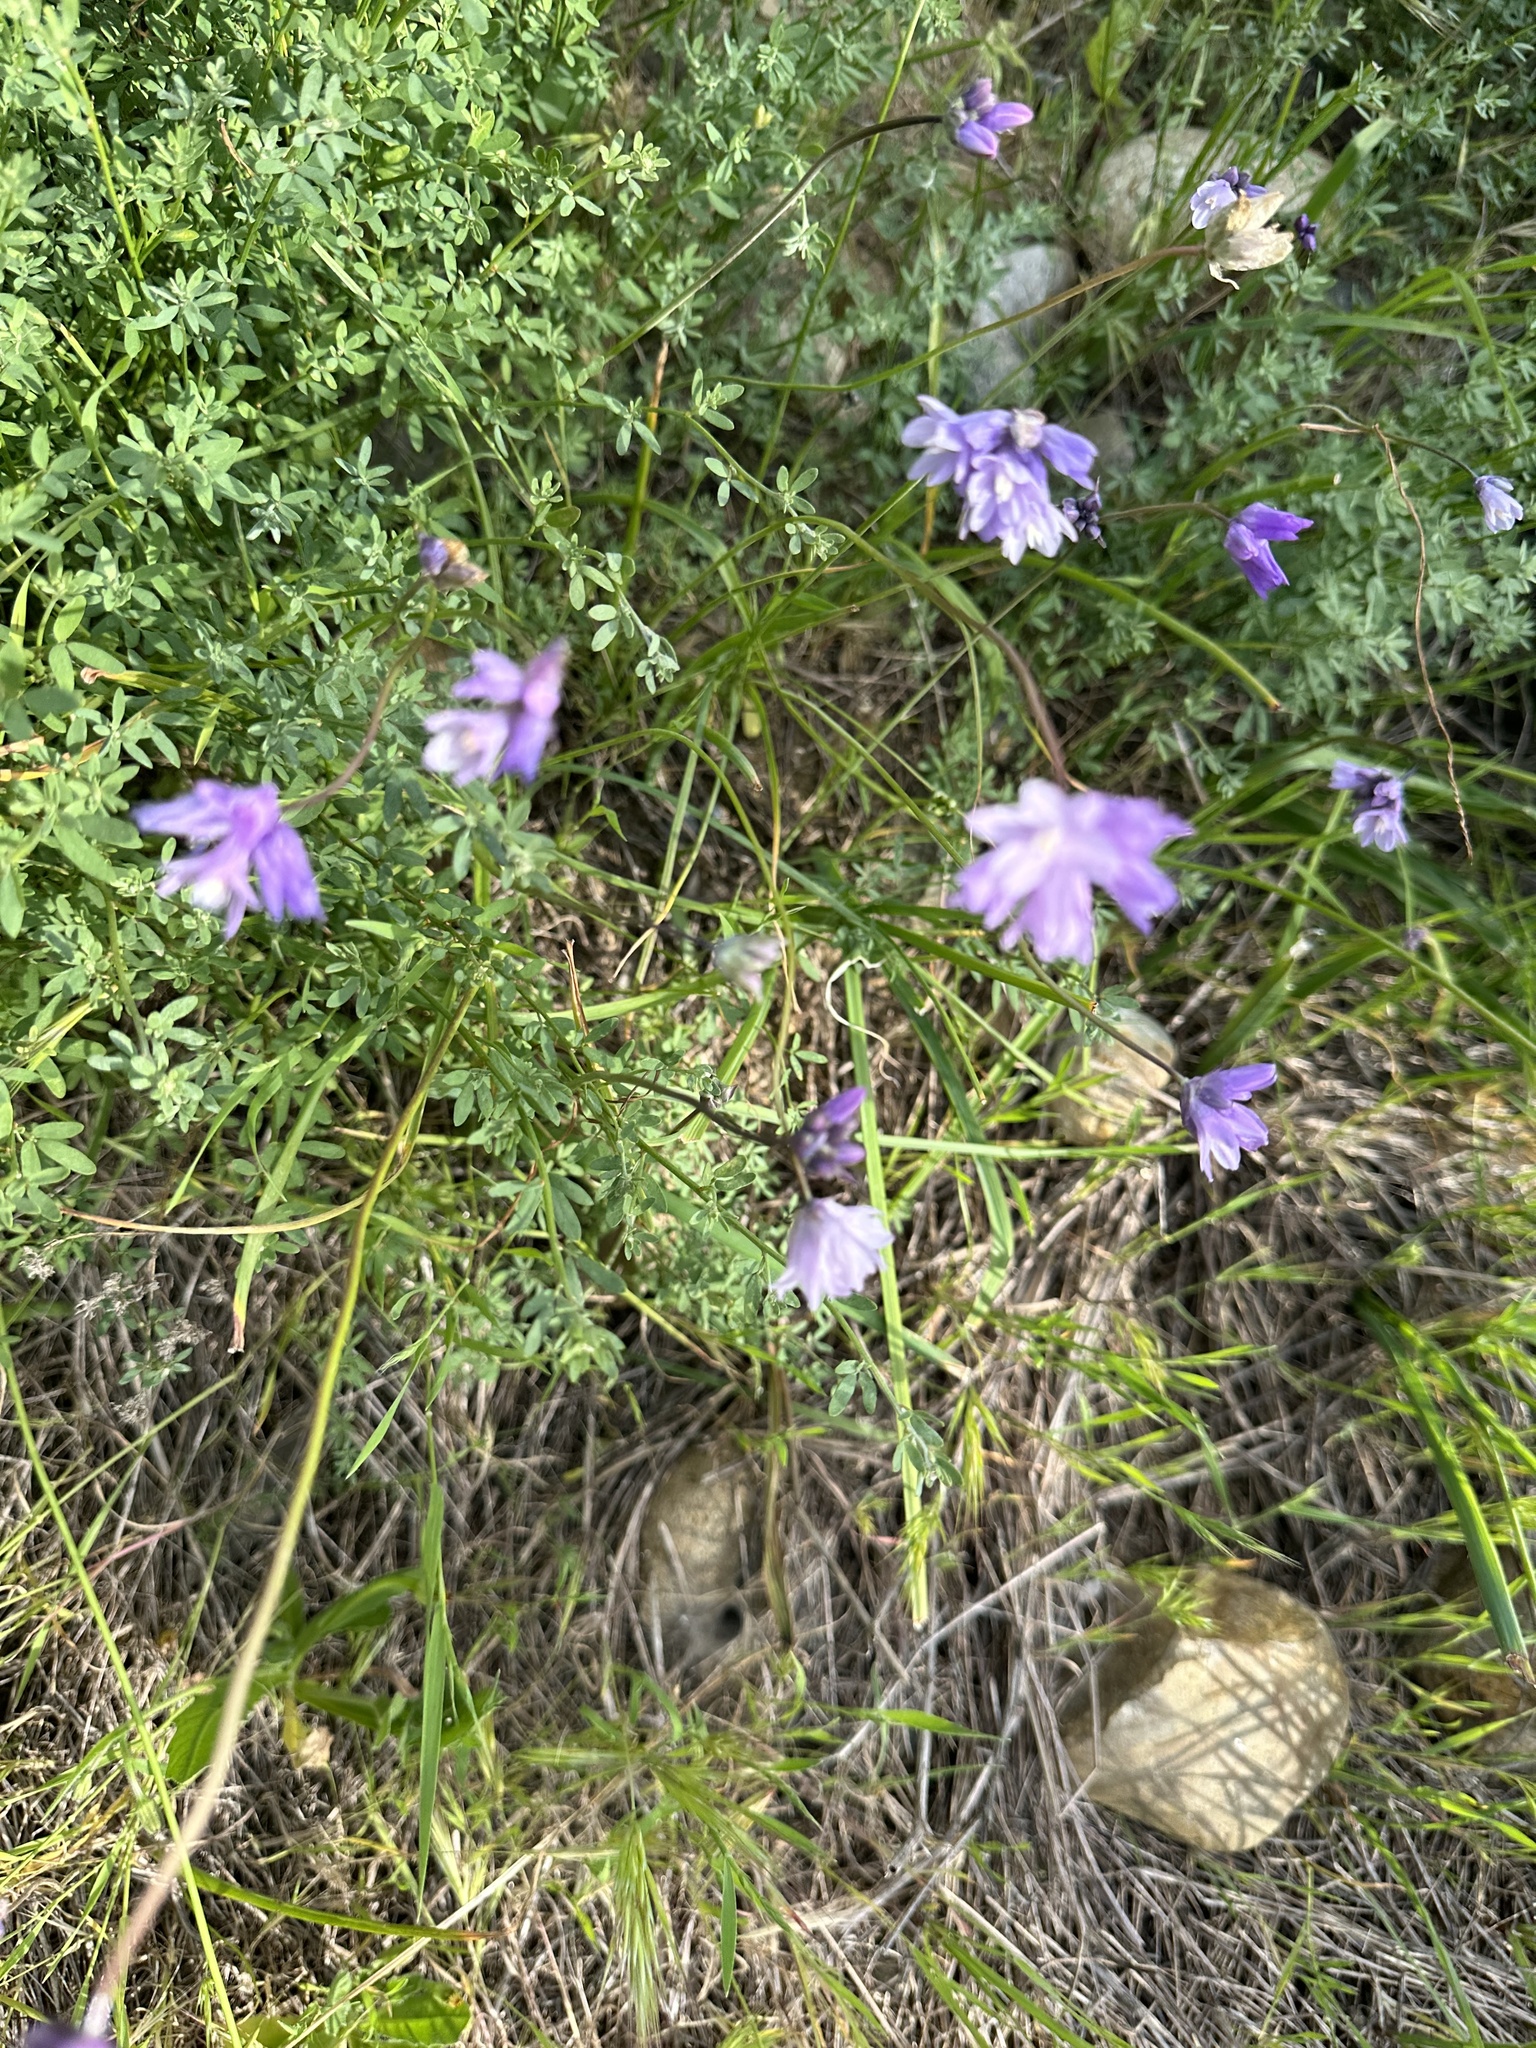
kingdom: Plantae
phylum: Tracheophyta
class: Liliopsida
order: Asparagales
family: Asparagaceae
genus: Dipterostemon
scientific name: Dipterostemon capitatus
